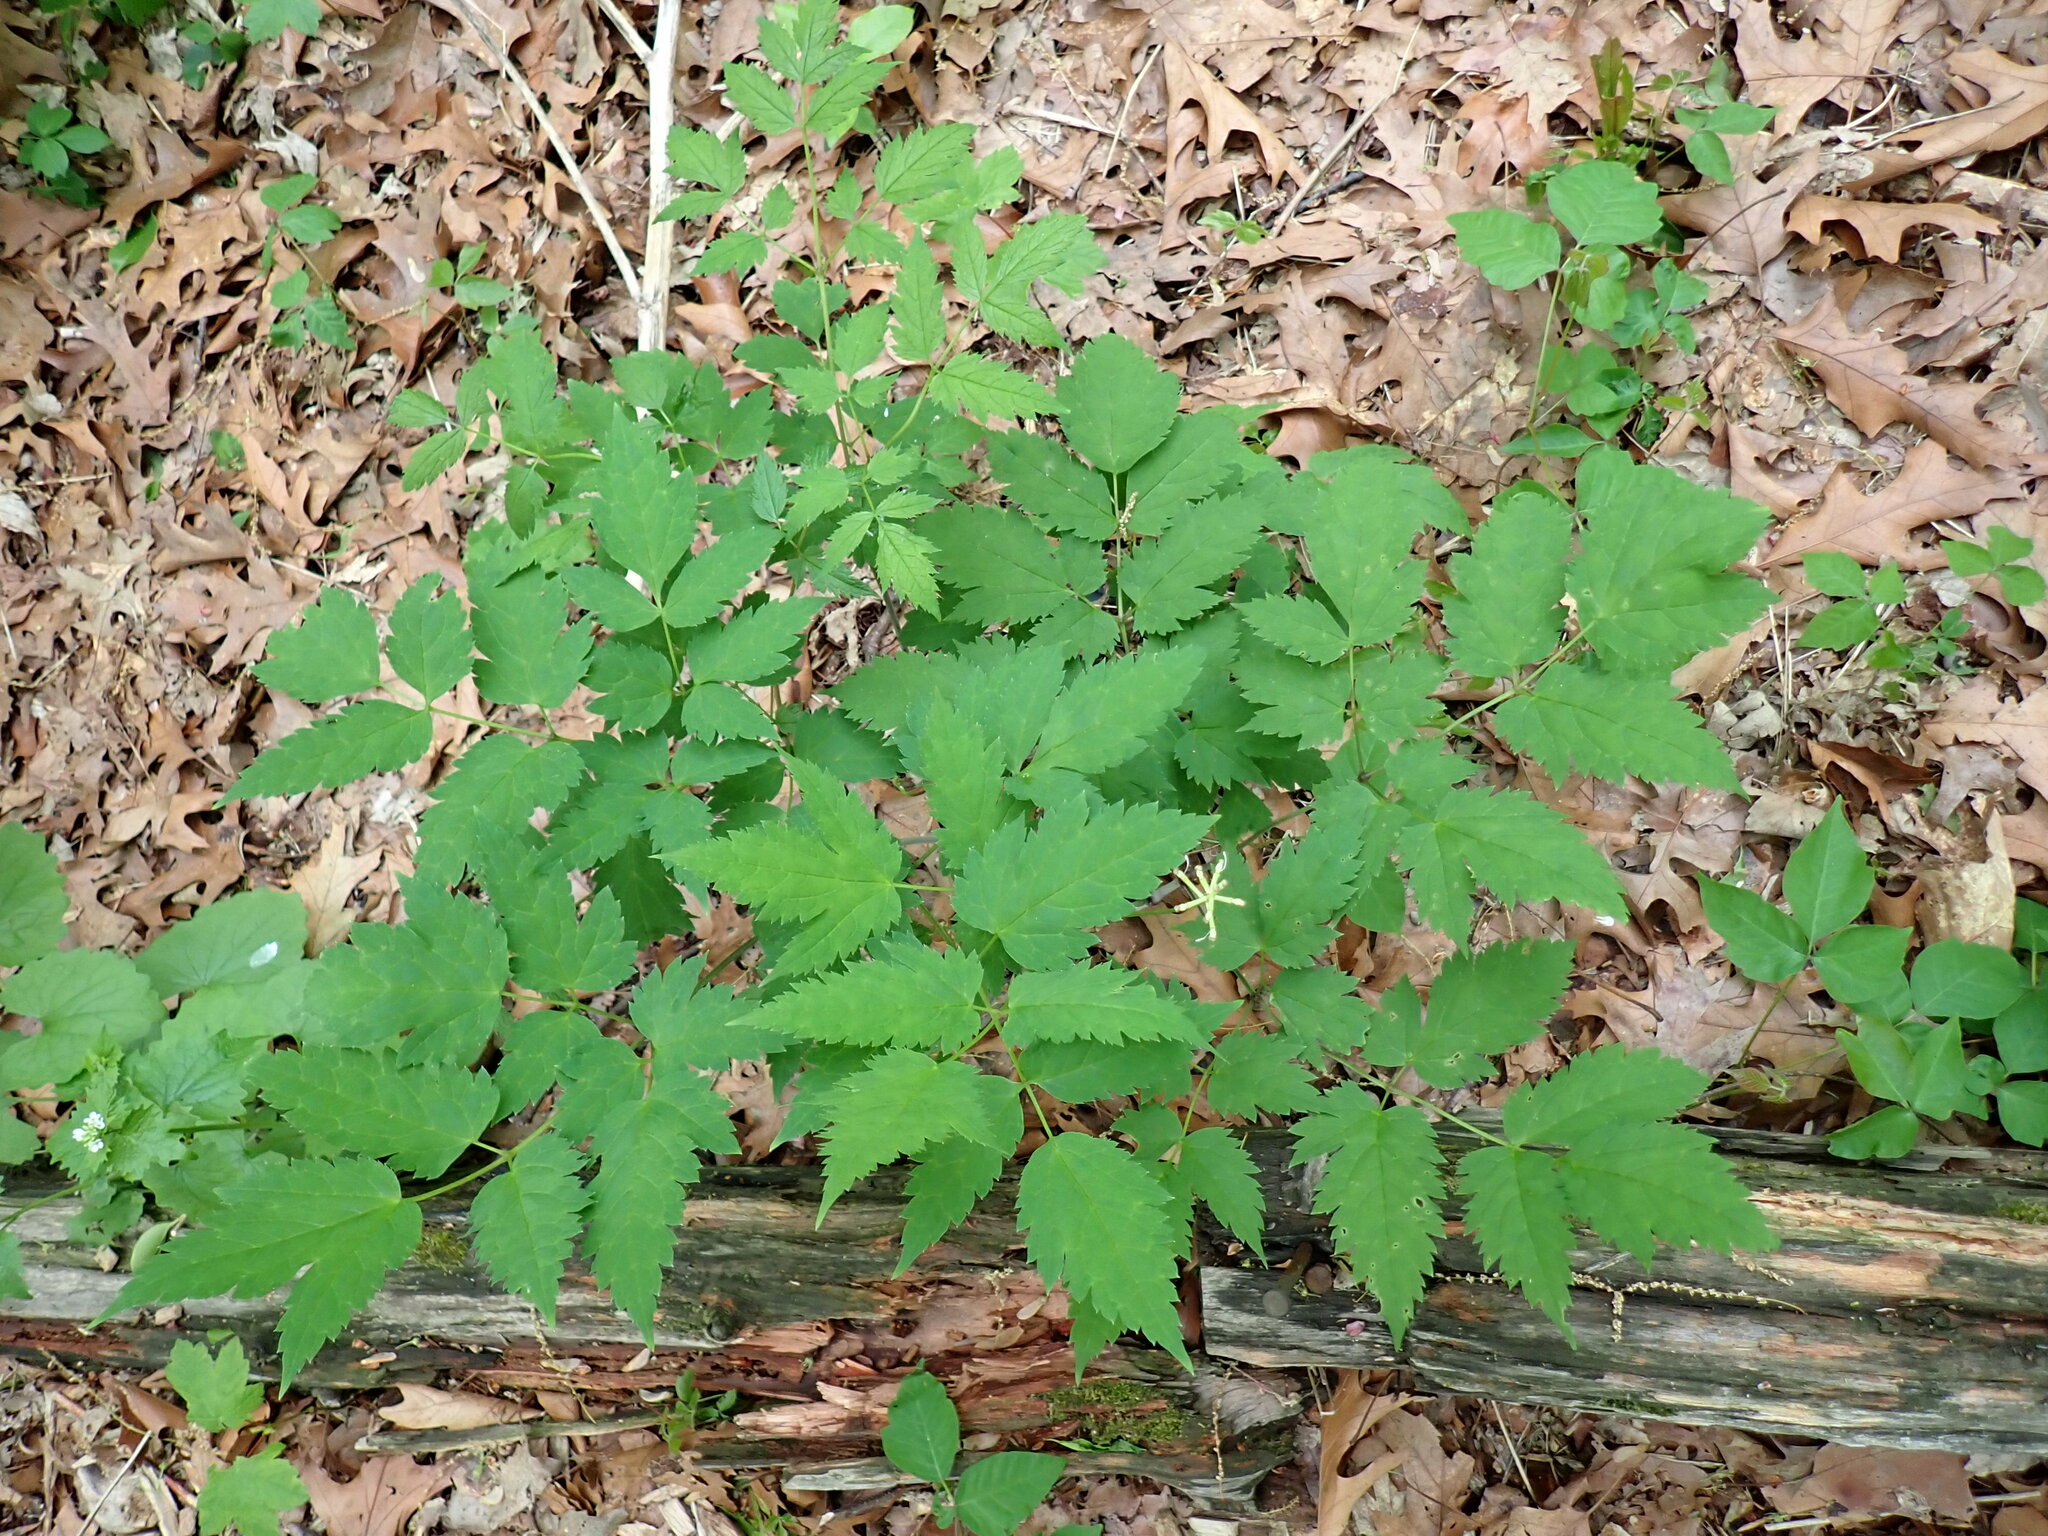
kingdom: Plantae
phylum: Tracheophyta
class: Magnoliopsida
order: Ranunculales
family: Ranunculaceae
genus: Actaea
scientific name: Actaea pachypoda
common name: Doll's-eyes
